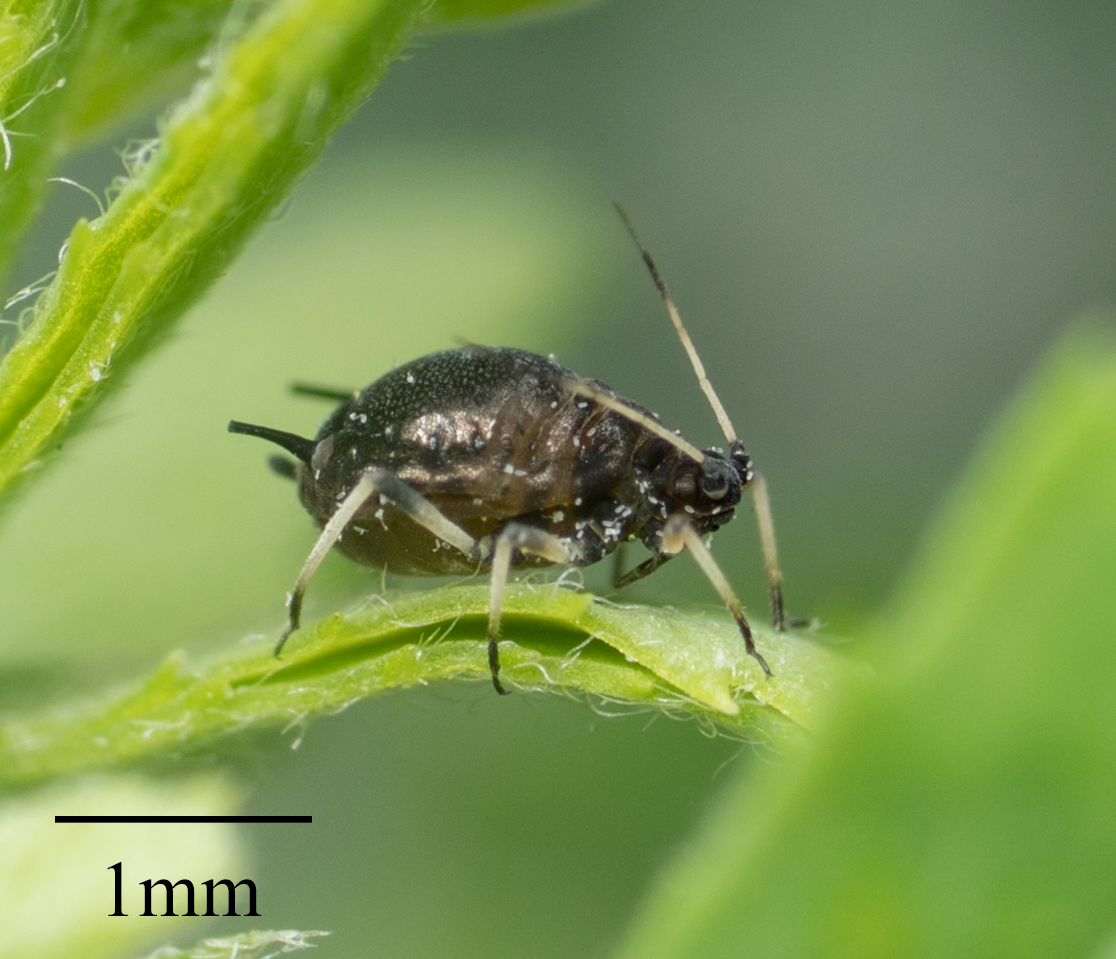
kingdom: Animalia
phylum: Arthropoda
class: Insecta
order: Hemiptera
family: Aphididae
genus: Aphis
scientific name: Aphis craccivora
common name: Cowpea aphid
